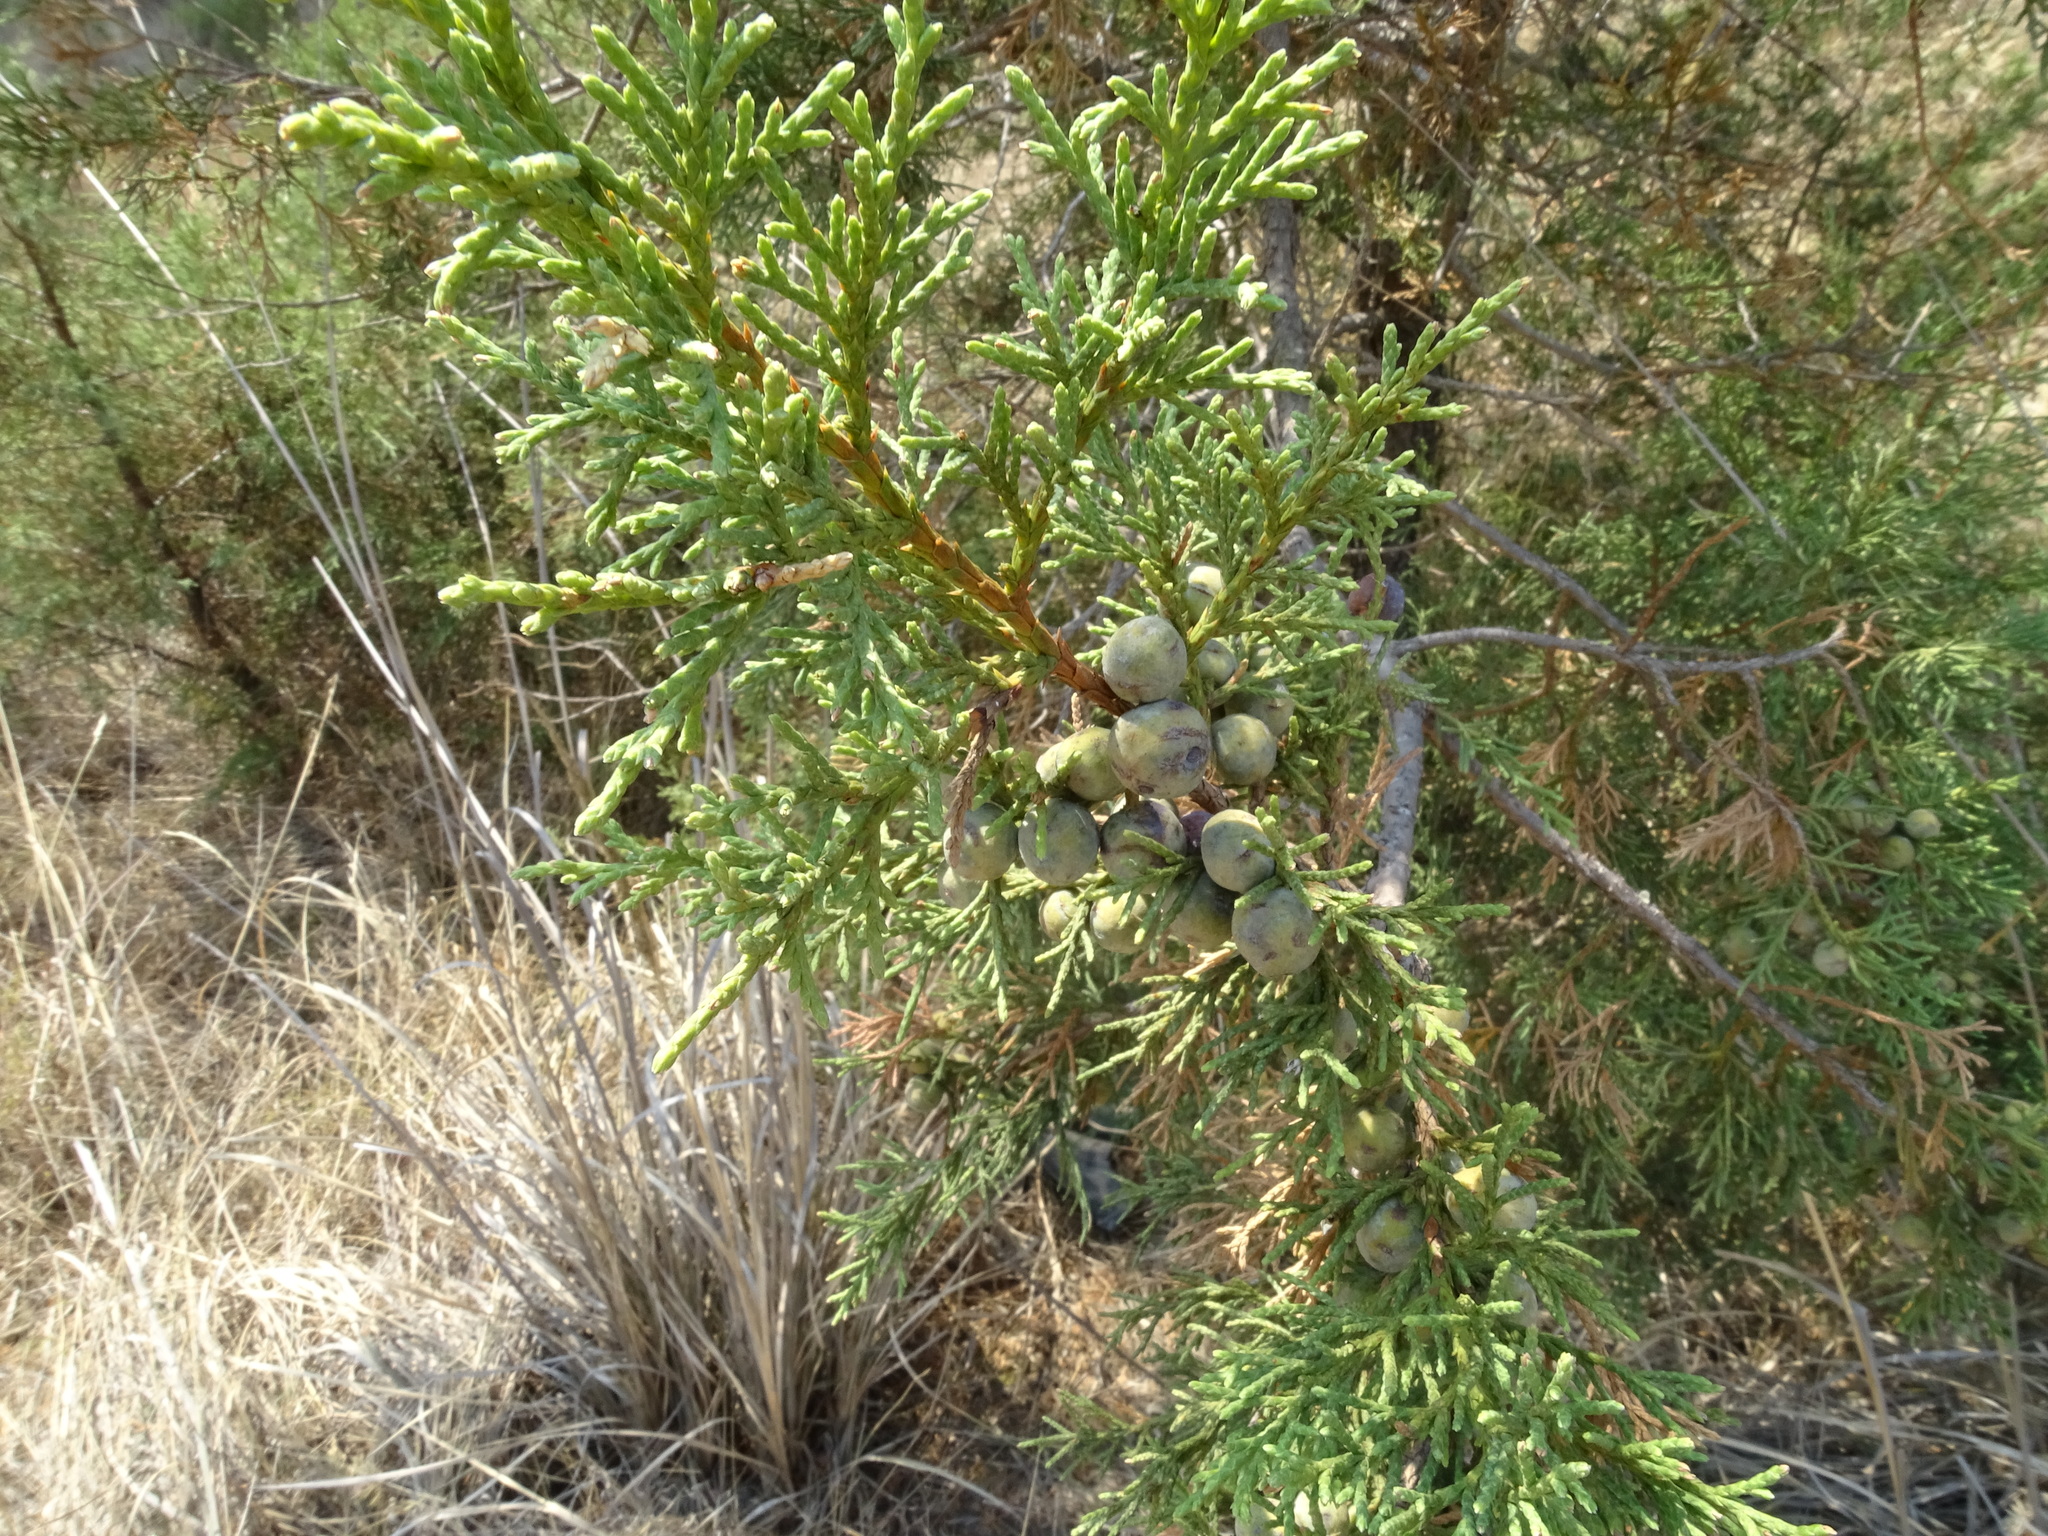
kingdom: Plantae
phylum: Tracheophyta
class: Pinopsida
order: Pinales
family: Cupressaceae
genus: Juniperus
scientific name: Juniperus deppeana
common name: Alligator juniper
